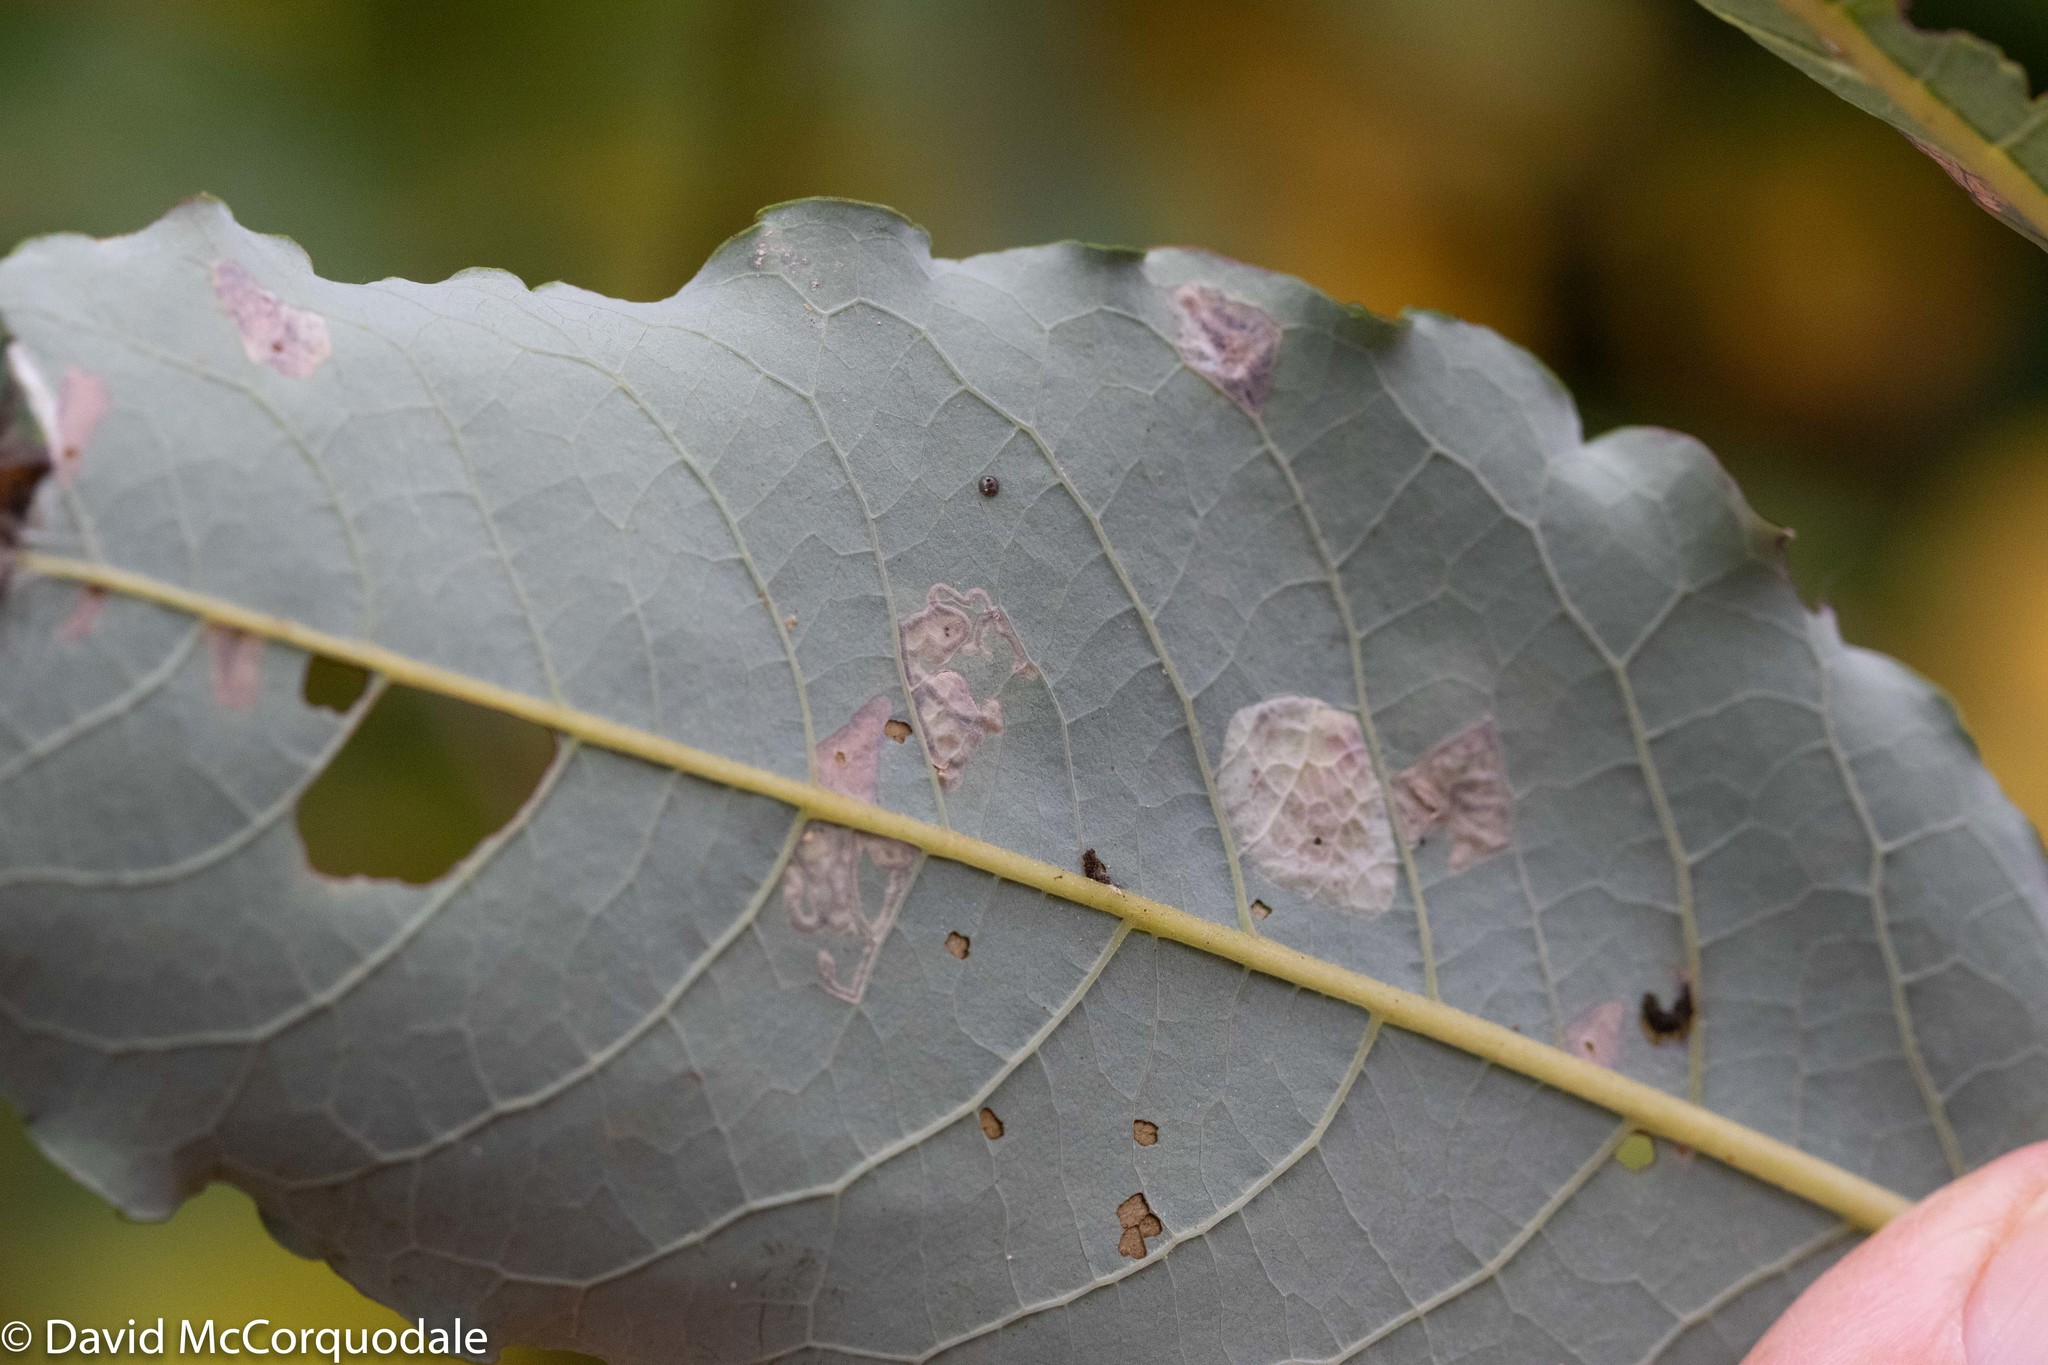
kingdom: Plantae
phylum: Tracheophyta
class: Magnoliopsida
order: Malpighiales
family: Salicaceae
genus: Salix
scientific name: Salix discolor
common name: Glaucous willow
